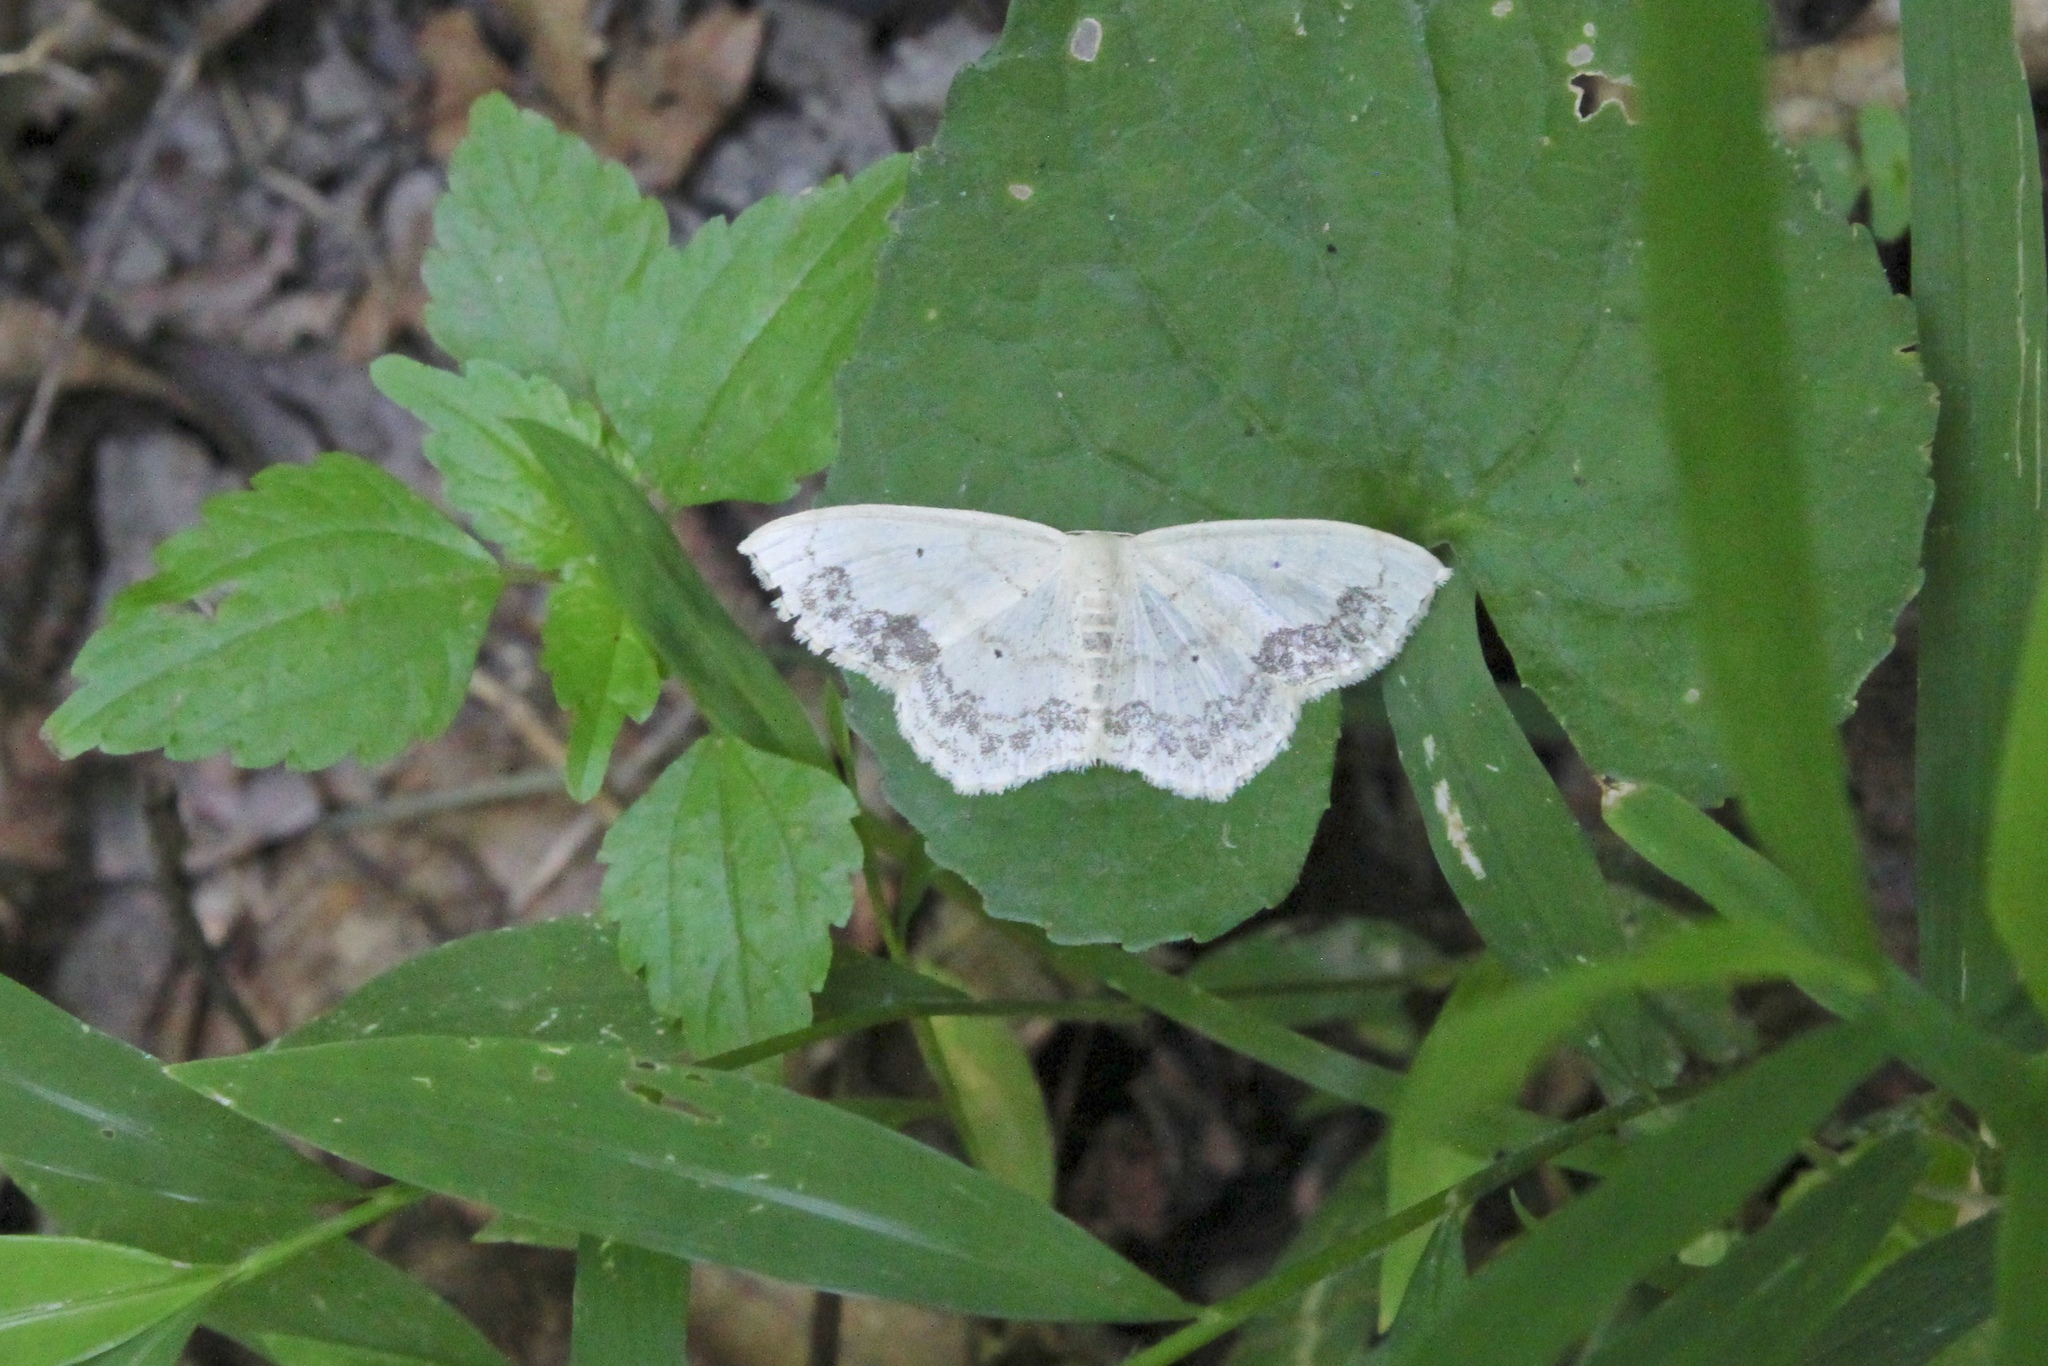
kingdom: Animalia
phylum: Arthropoda
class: Insecta
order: Lepidoptera
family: Geometridae
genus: Scopula
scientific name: Scopula limboundata
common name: Large lace border
